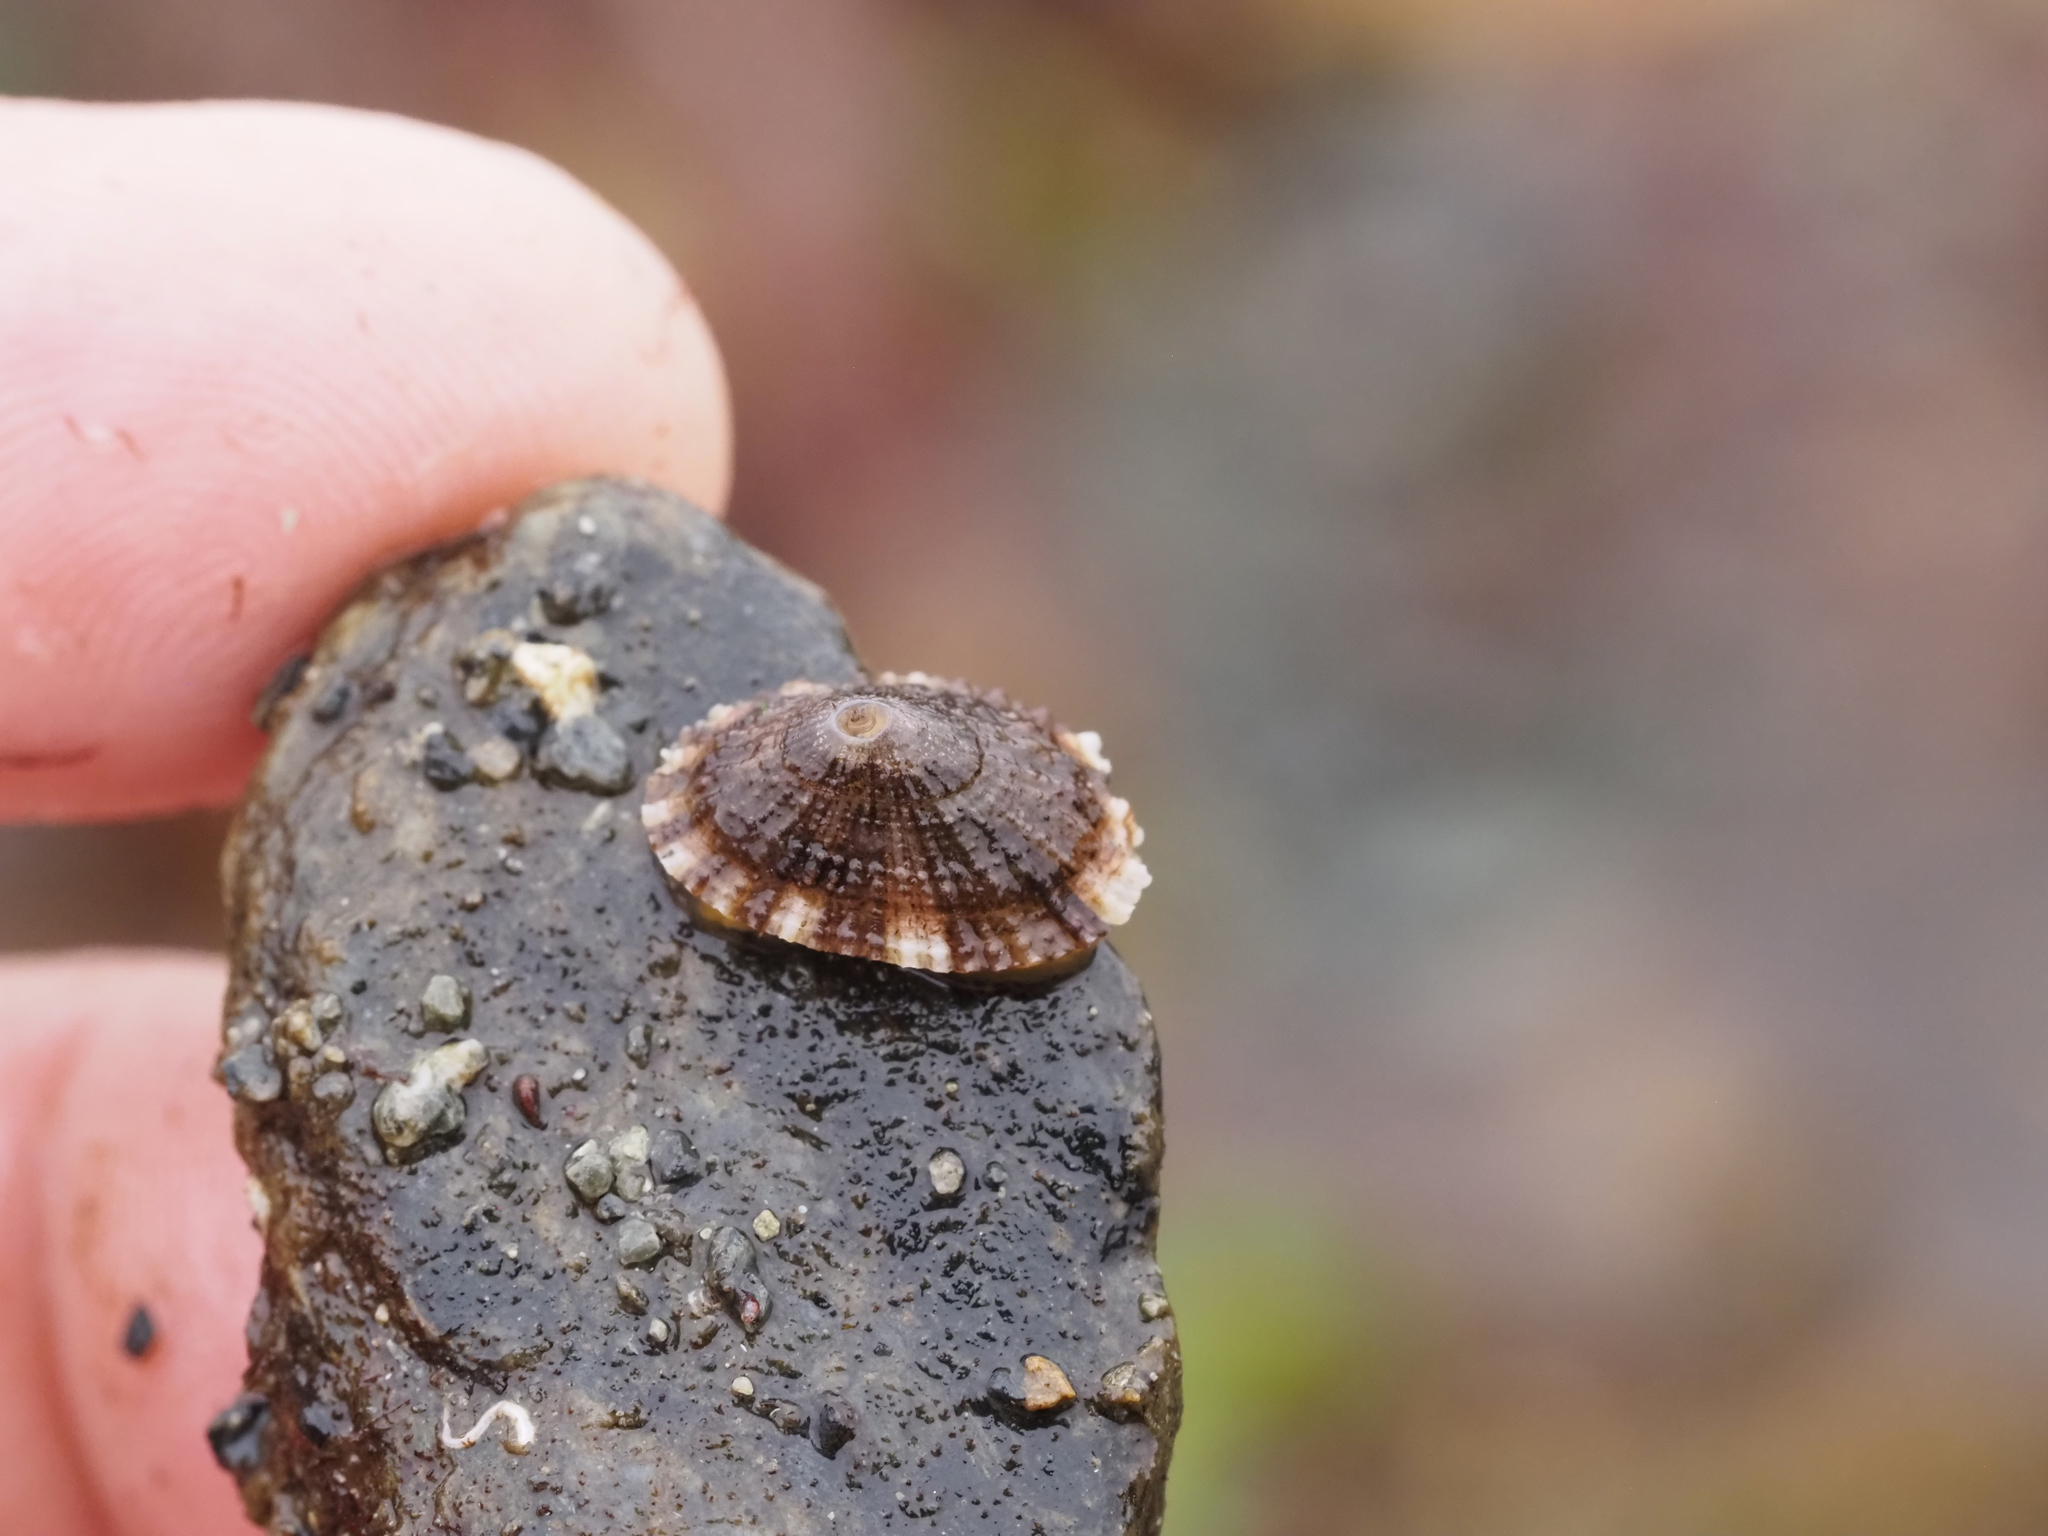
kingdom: Animalia
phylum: Mollusca
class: Gastropoda
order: Lepetellida
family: Fissurellidae
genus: Diodora
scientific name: Diodora aspera
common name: Rough keyhole limpet
